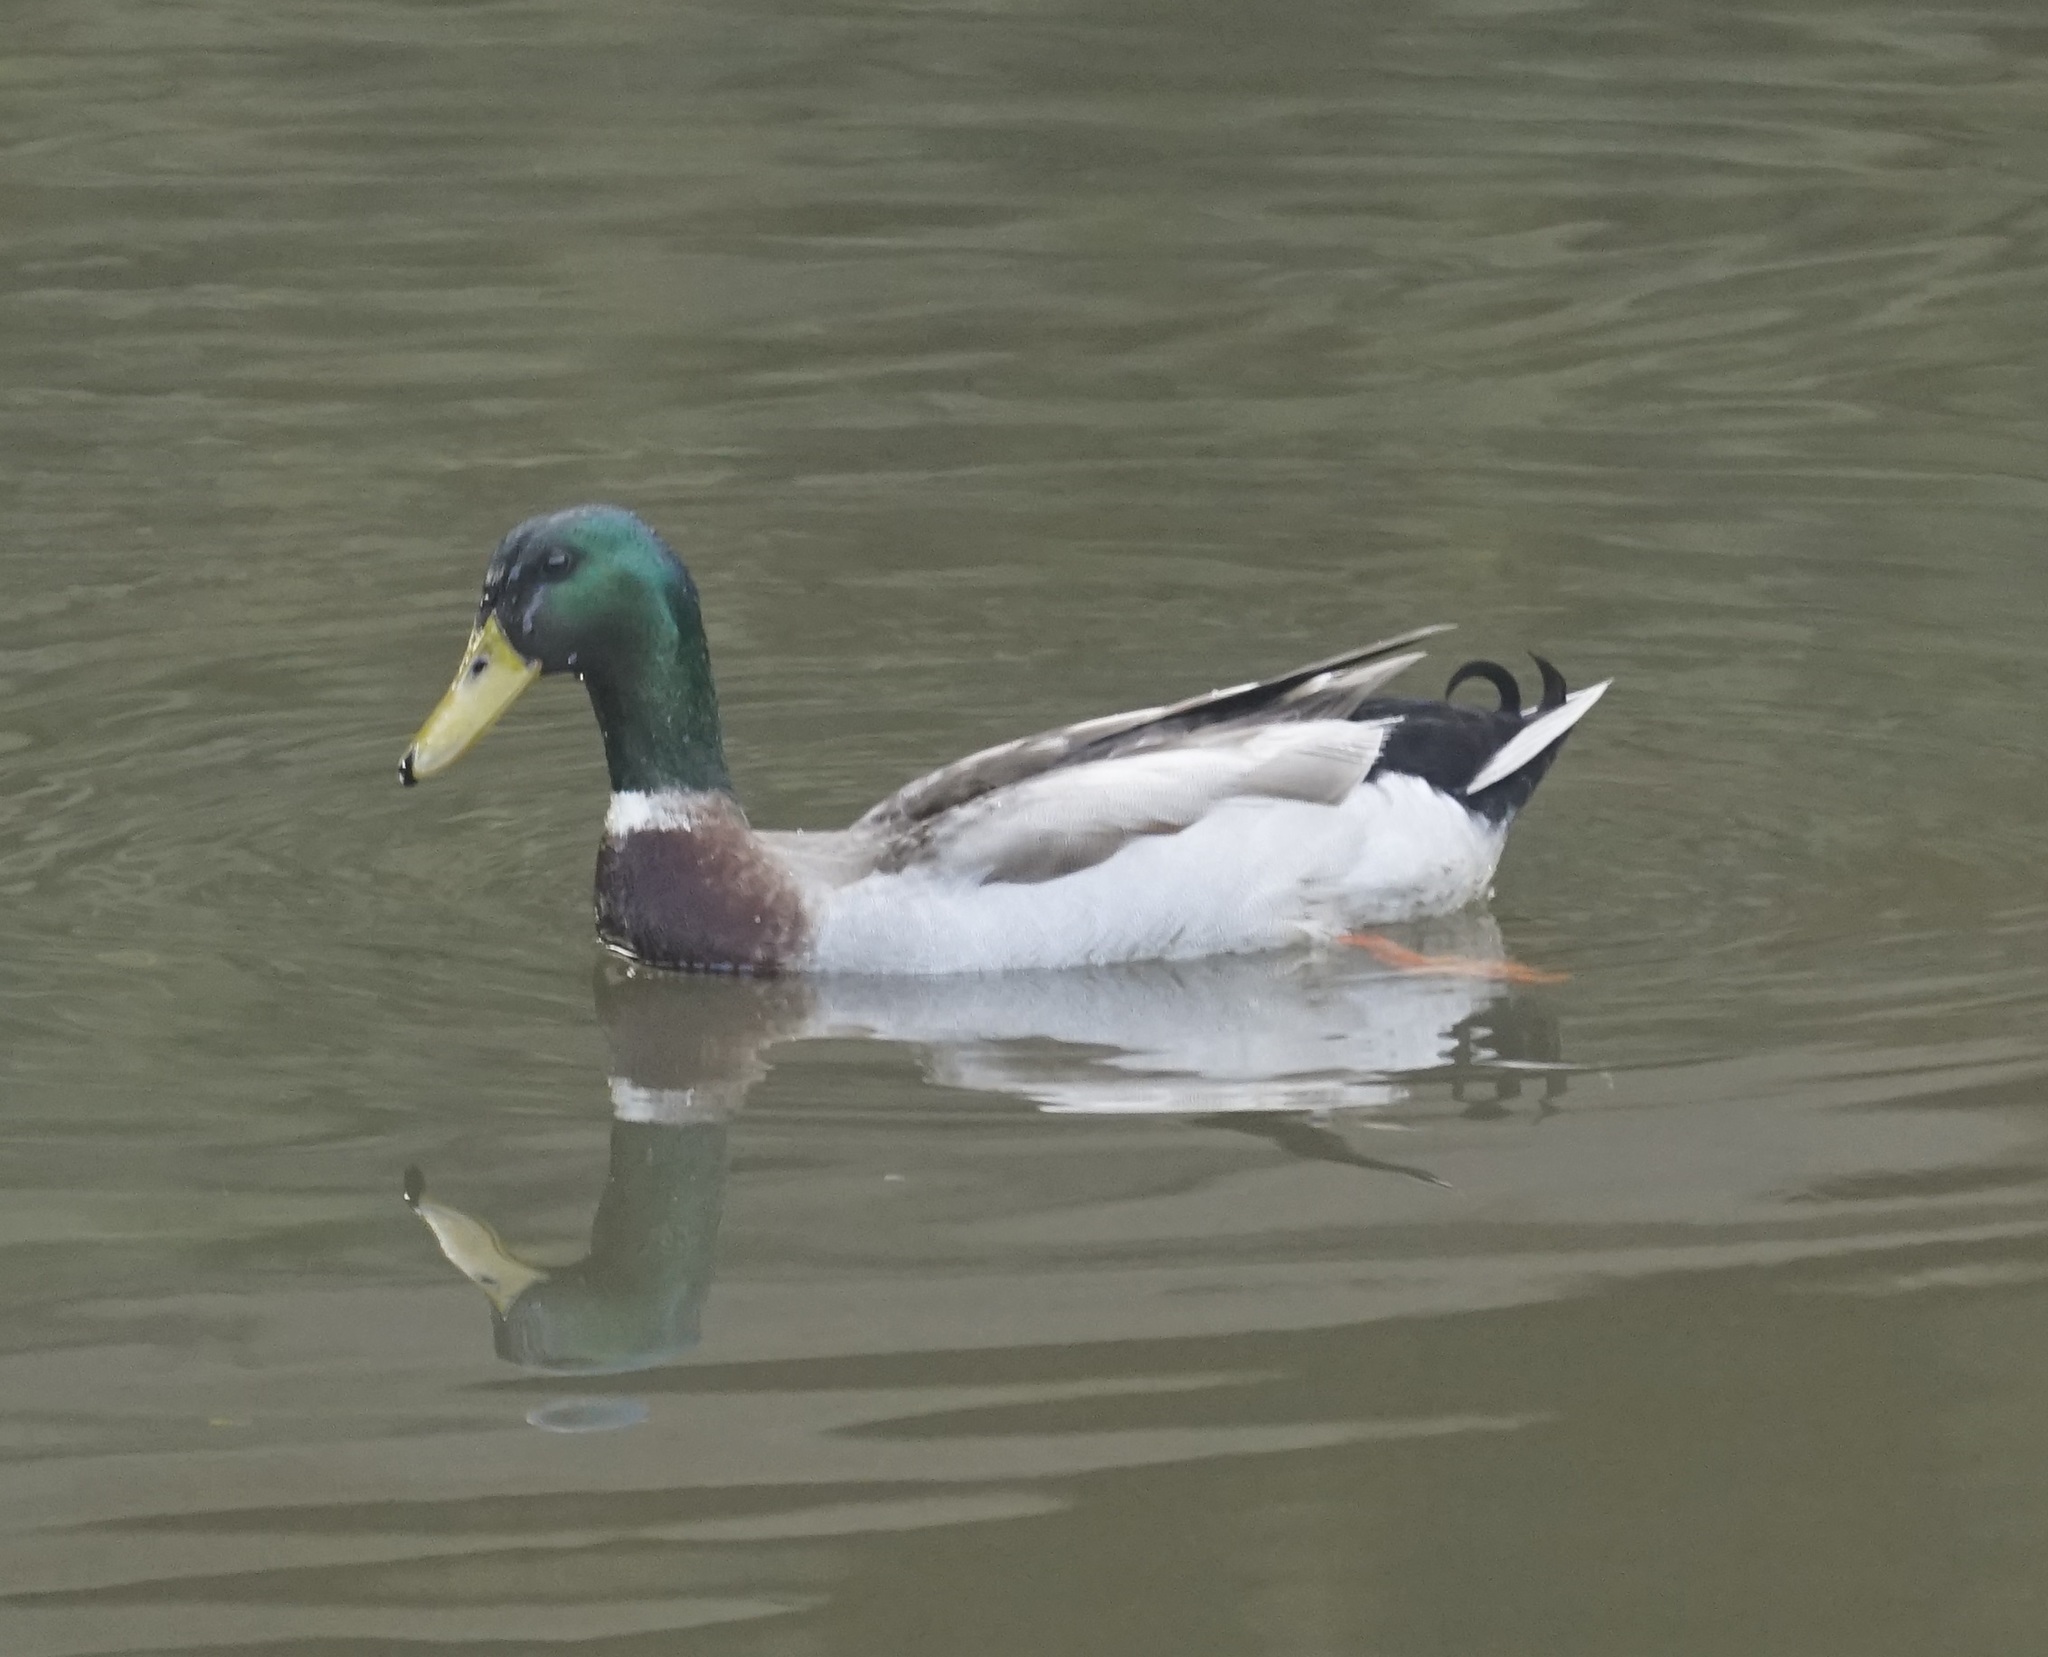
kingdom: Animalia
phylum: Chordata
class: Aves
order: Anseriformes
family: Anatidae
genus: Anas
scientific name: Anas platyrhynchos
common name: Mallard
